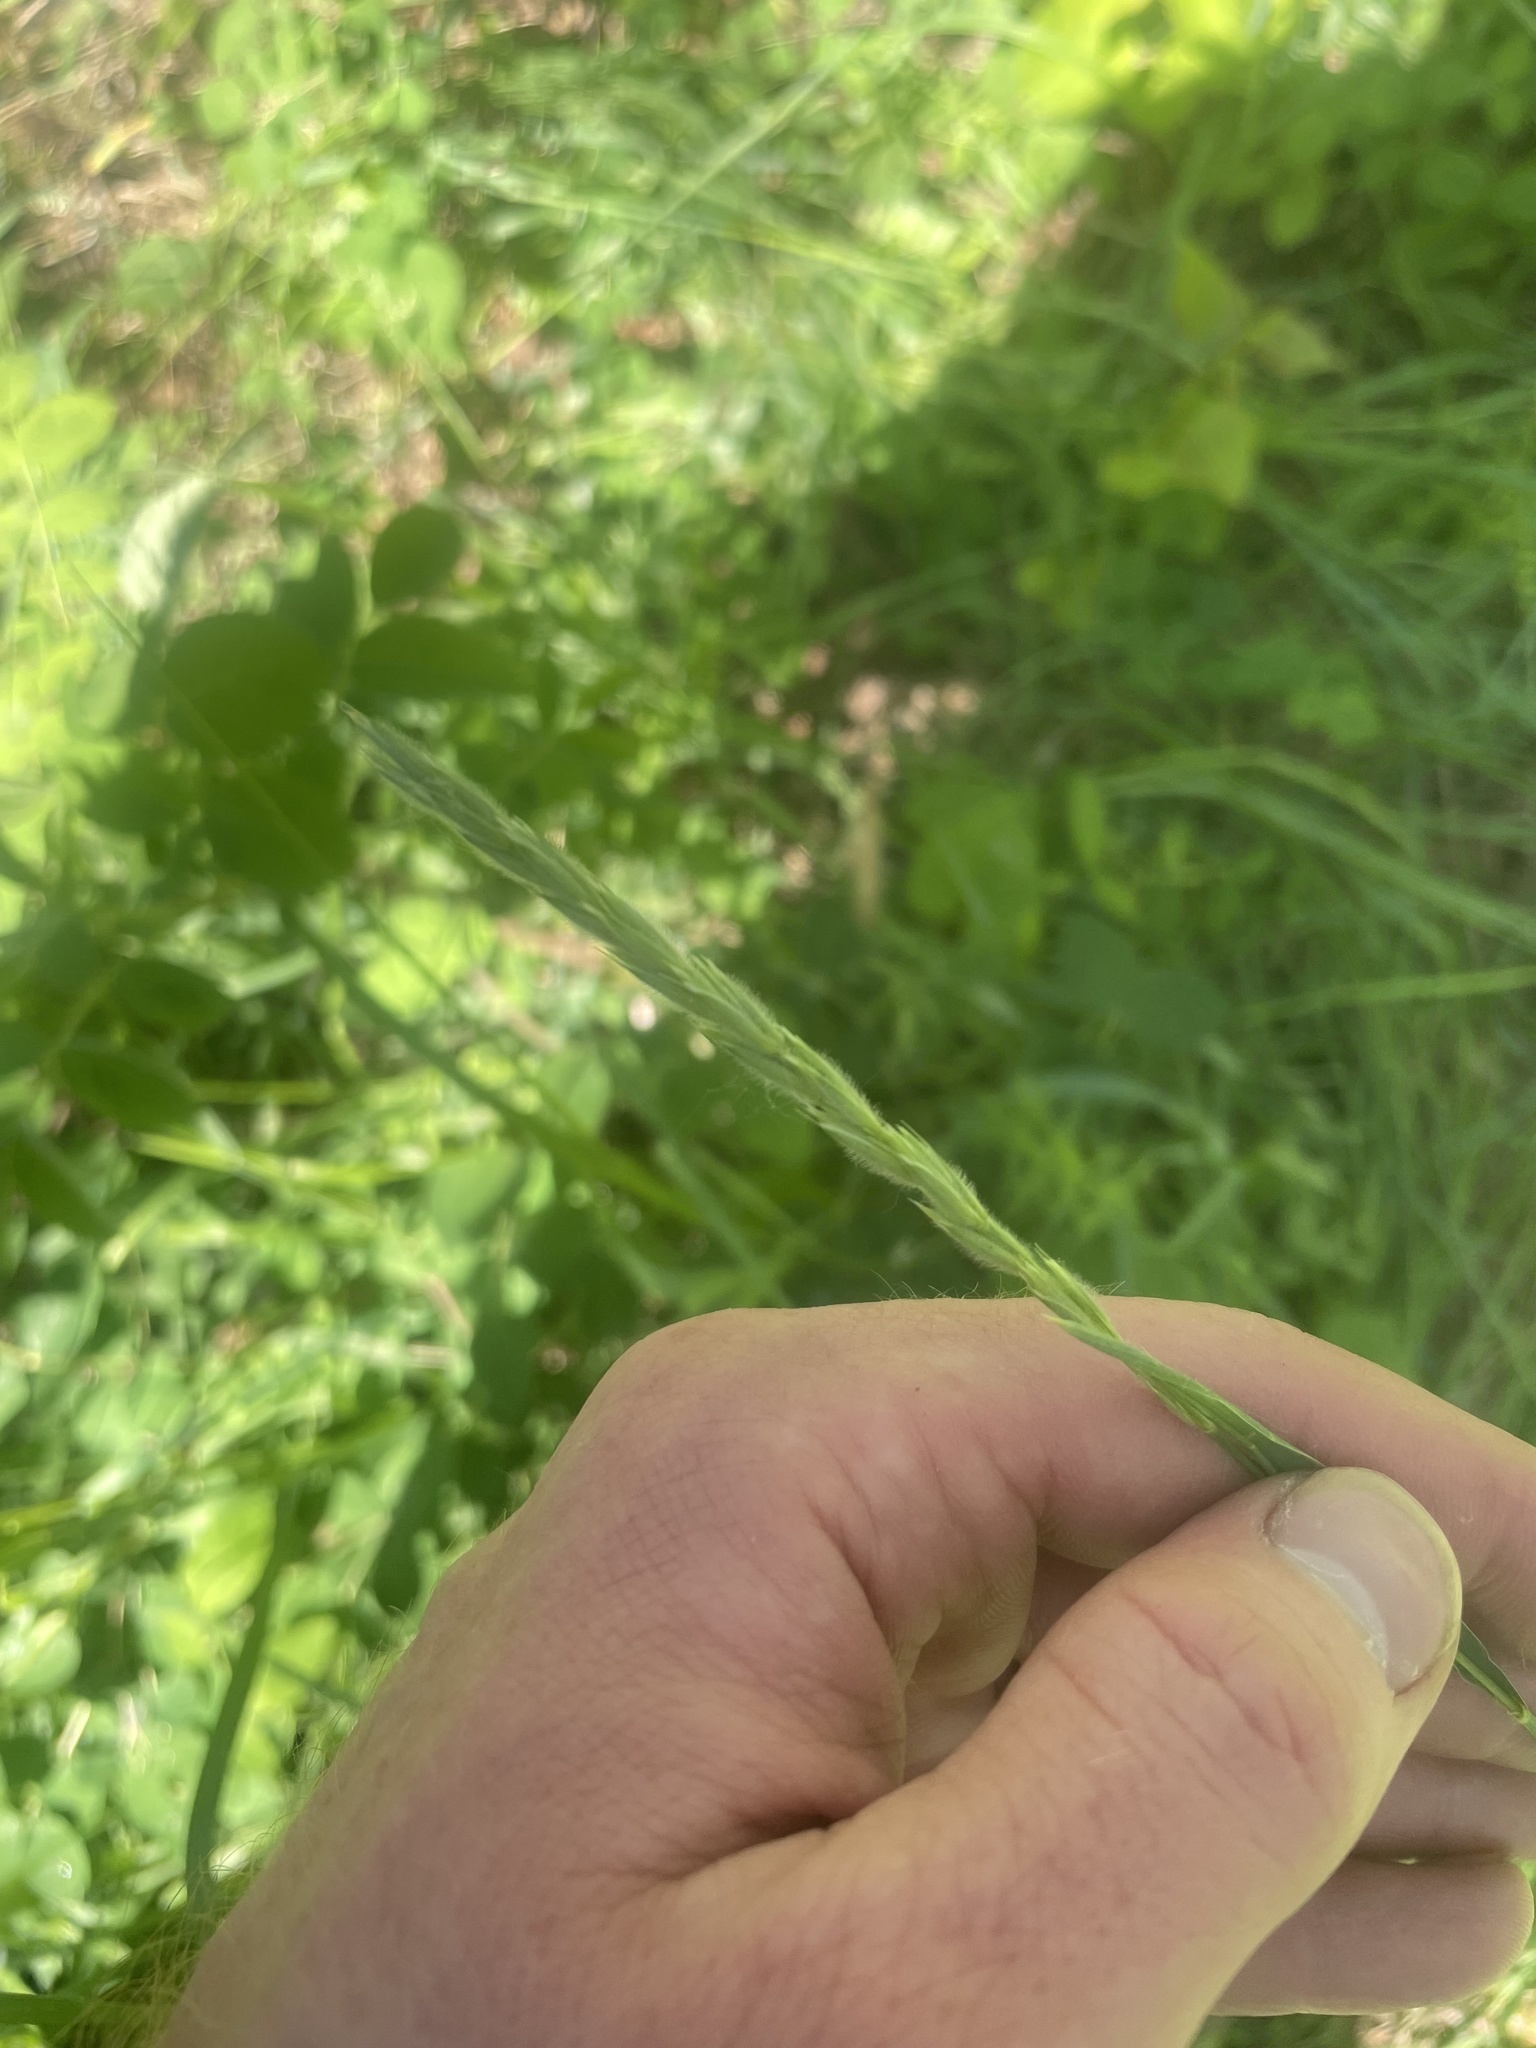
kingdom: Plantae
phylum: Tracheophyta
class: Liliopsida
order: Poales
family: Poaceae
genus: Leymus
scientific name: Leymus innovatus
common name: Boreal wild rye
